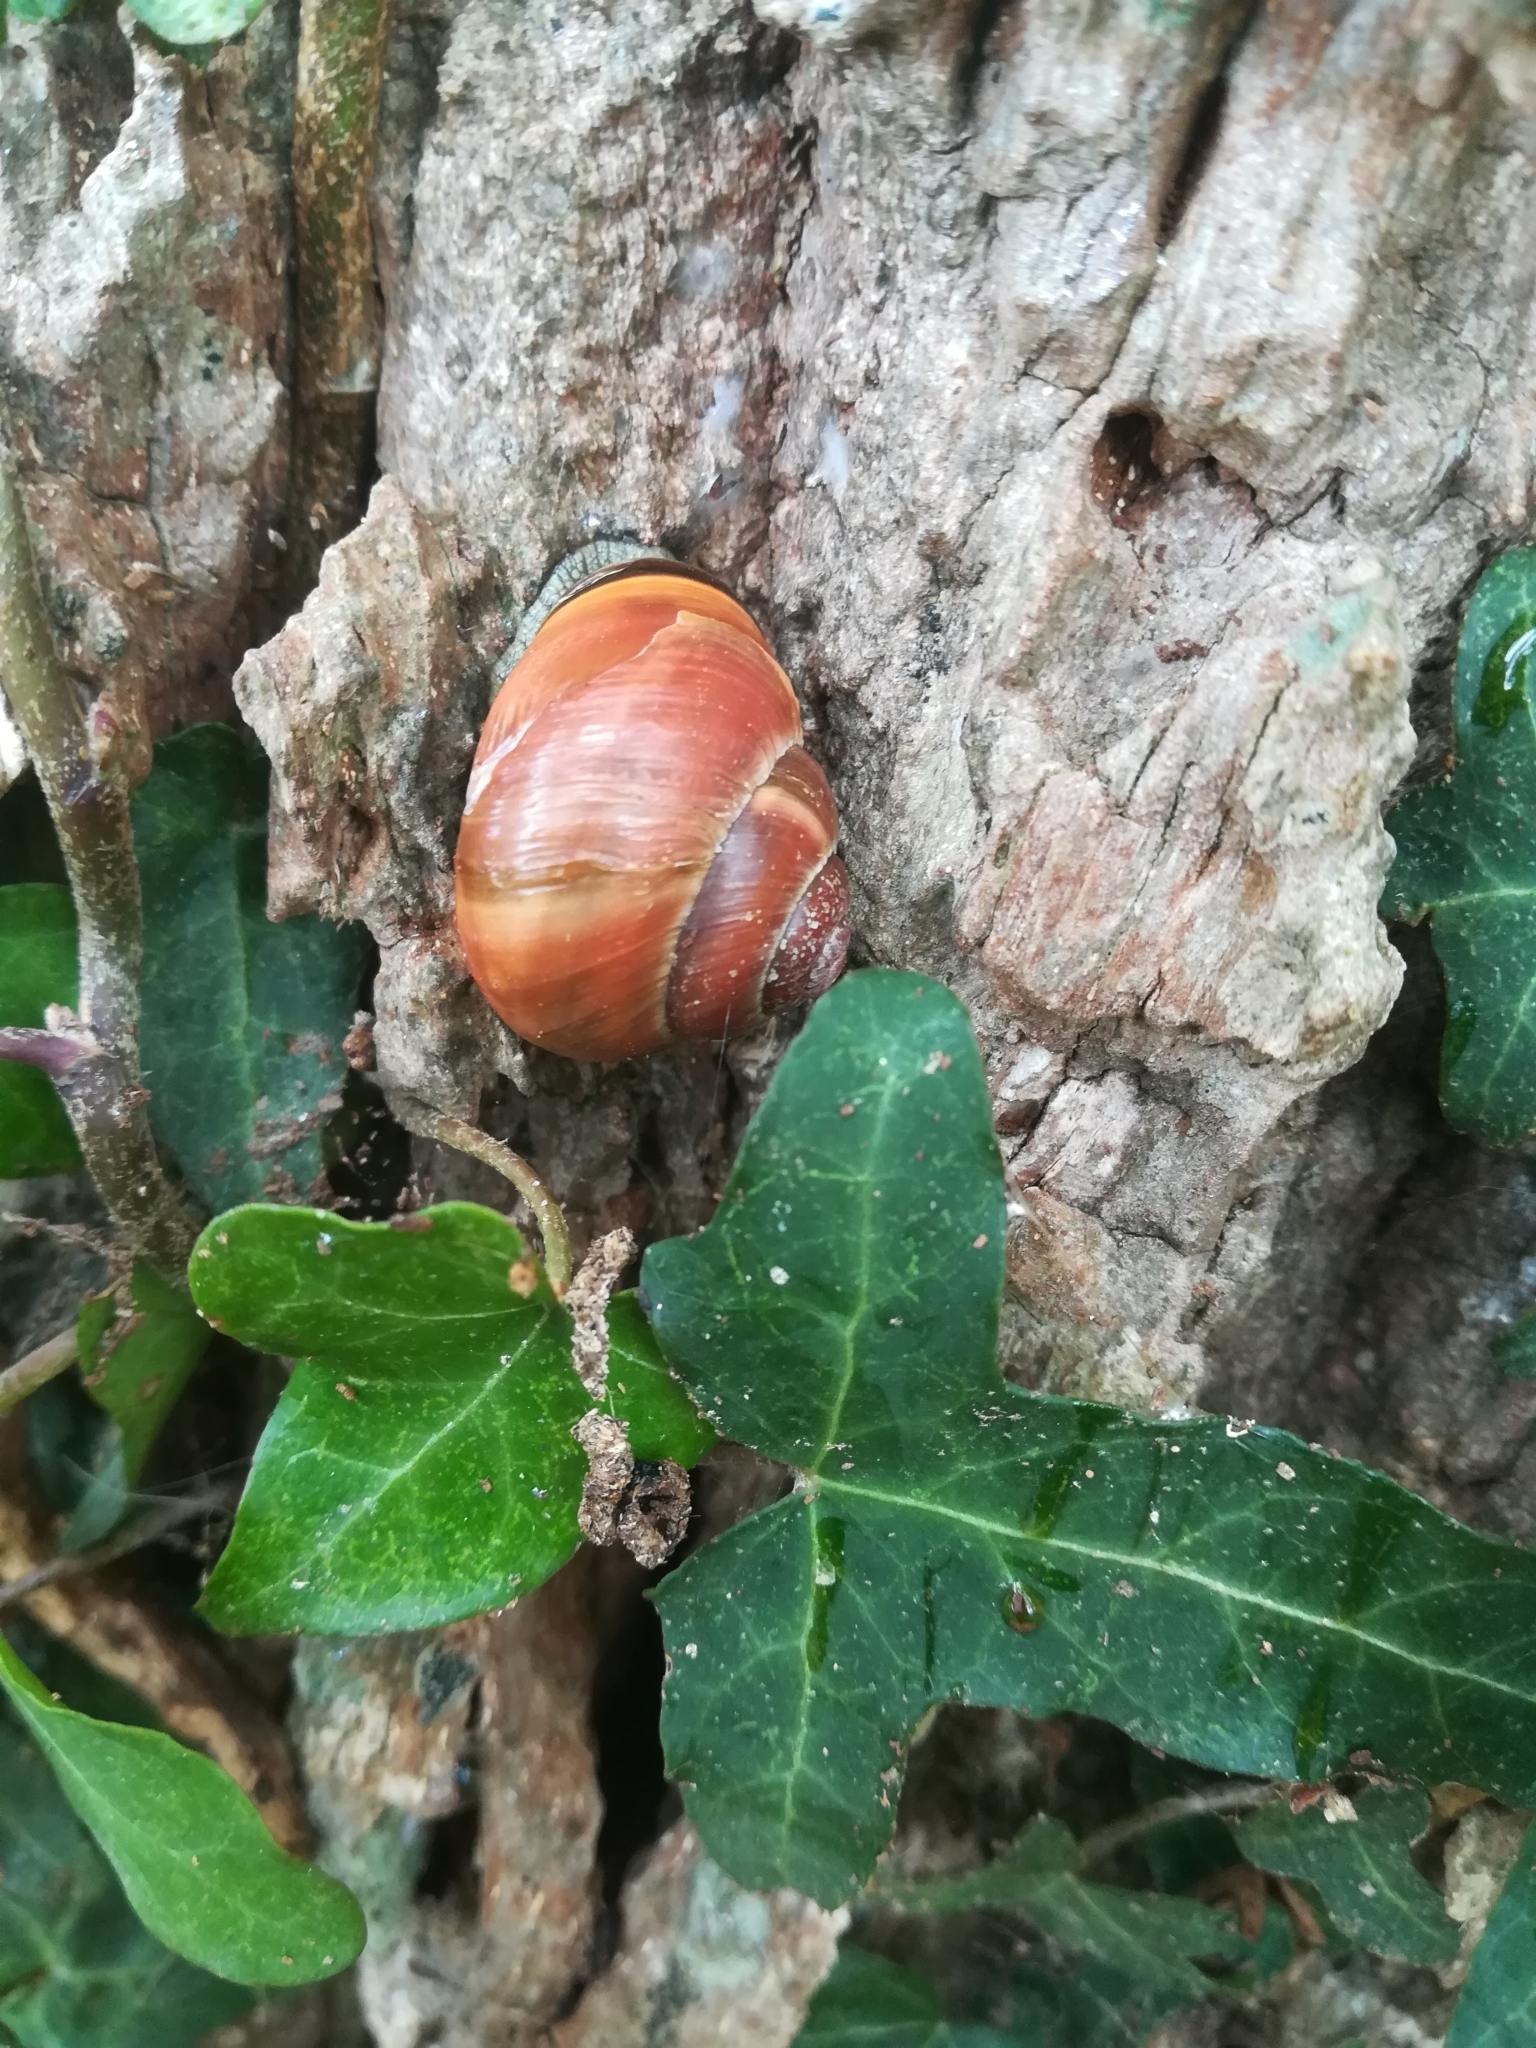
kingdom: Animalia
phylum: Mollusca
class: Gastropoda
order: Stylommatophora
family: Helicidae
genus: Cepaea
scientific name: Cepaea nemoralis
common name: Grovesnail
